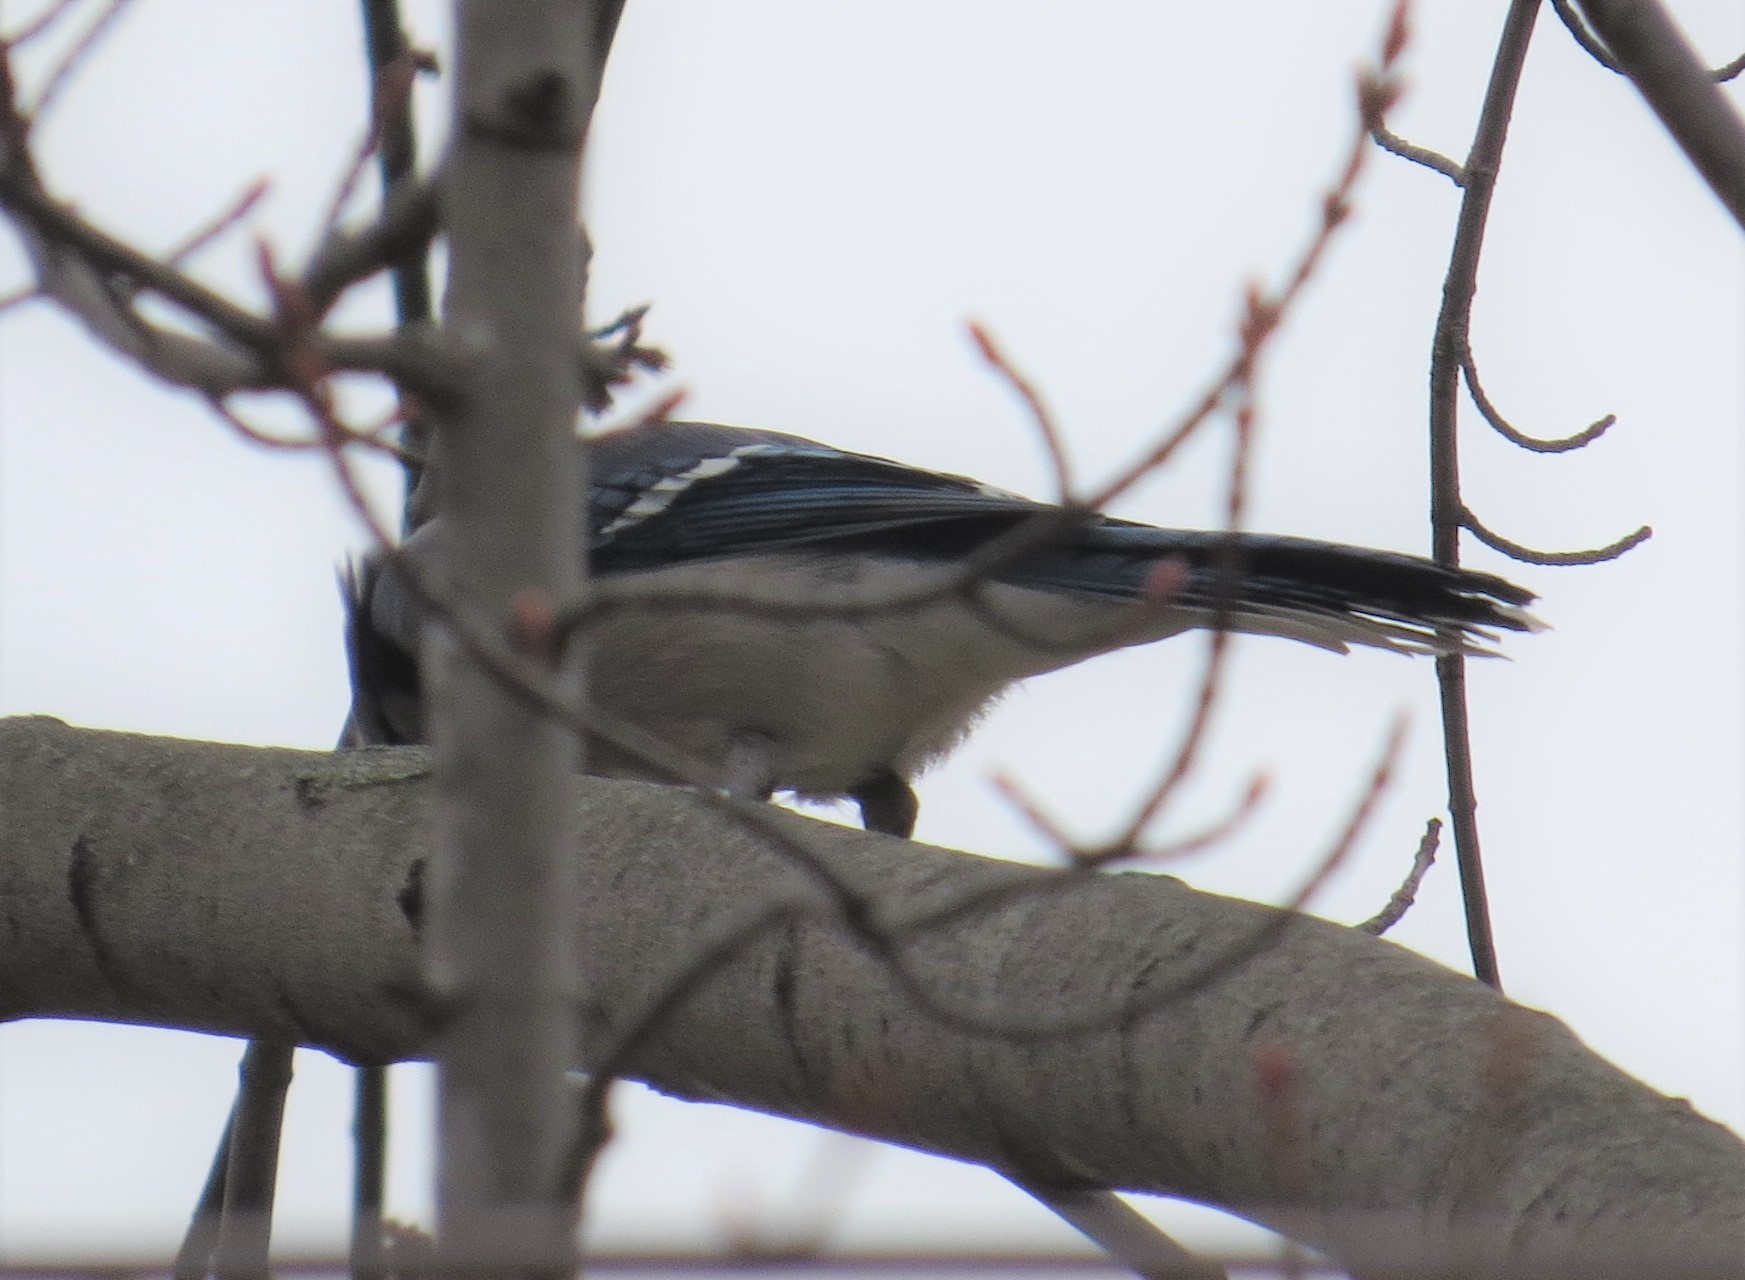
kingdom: Animalia
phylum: Chordata
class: Aves
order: Passeriformes
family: Corvidae
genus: Cyanocitta
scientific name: Cyanocitta cristata
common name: Blue jay
